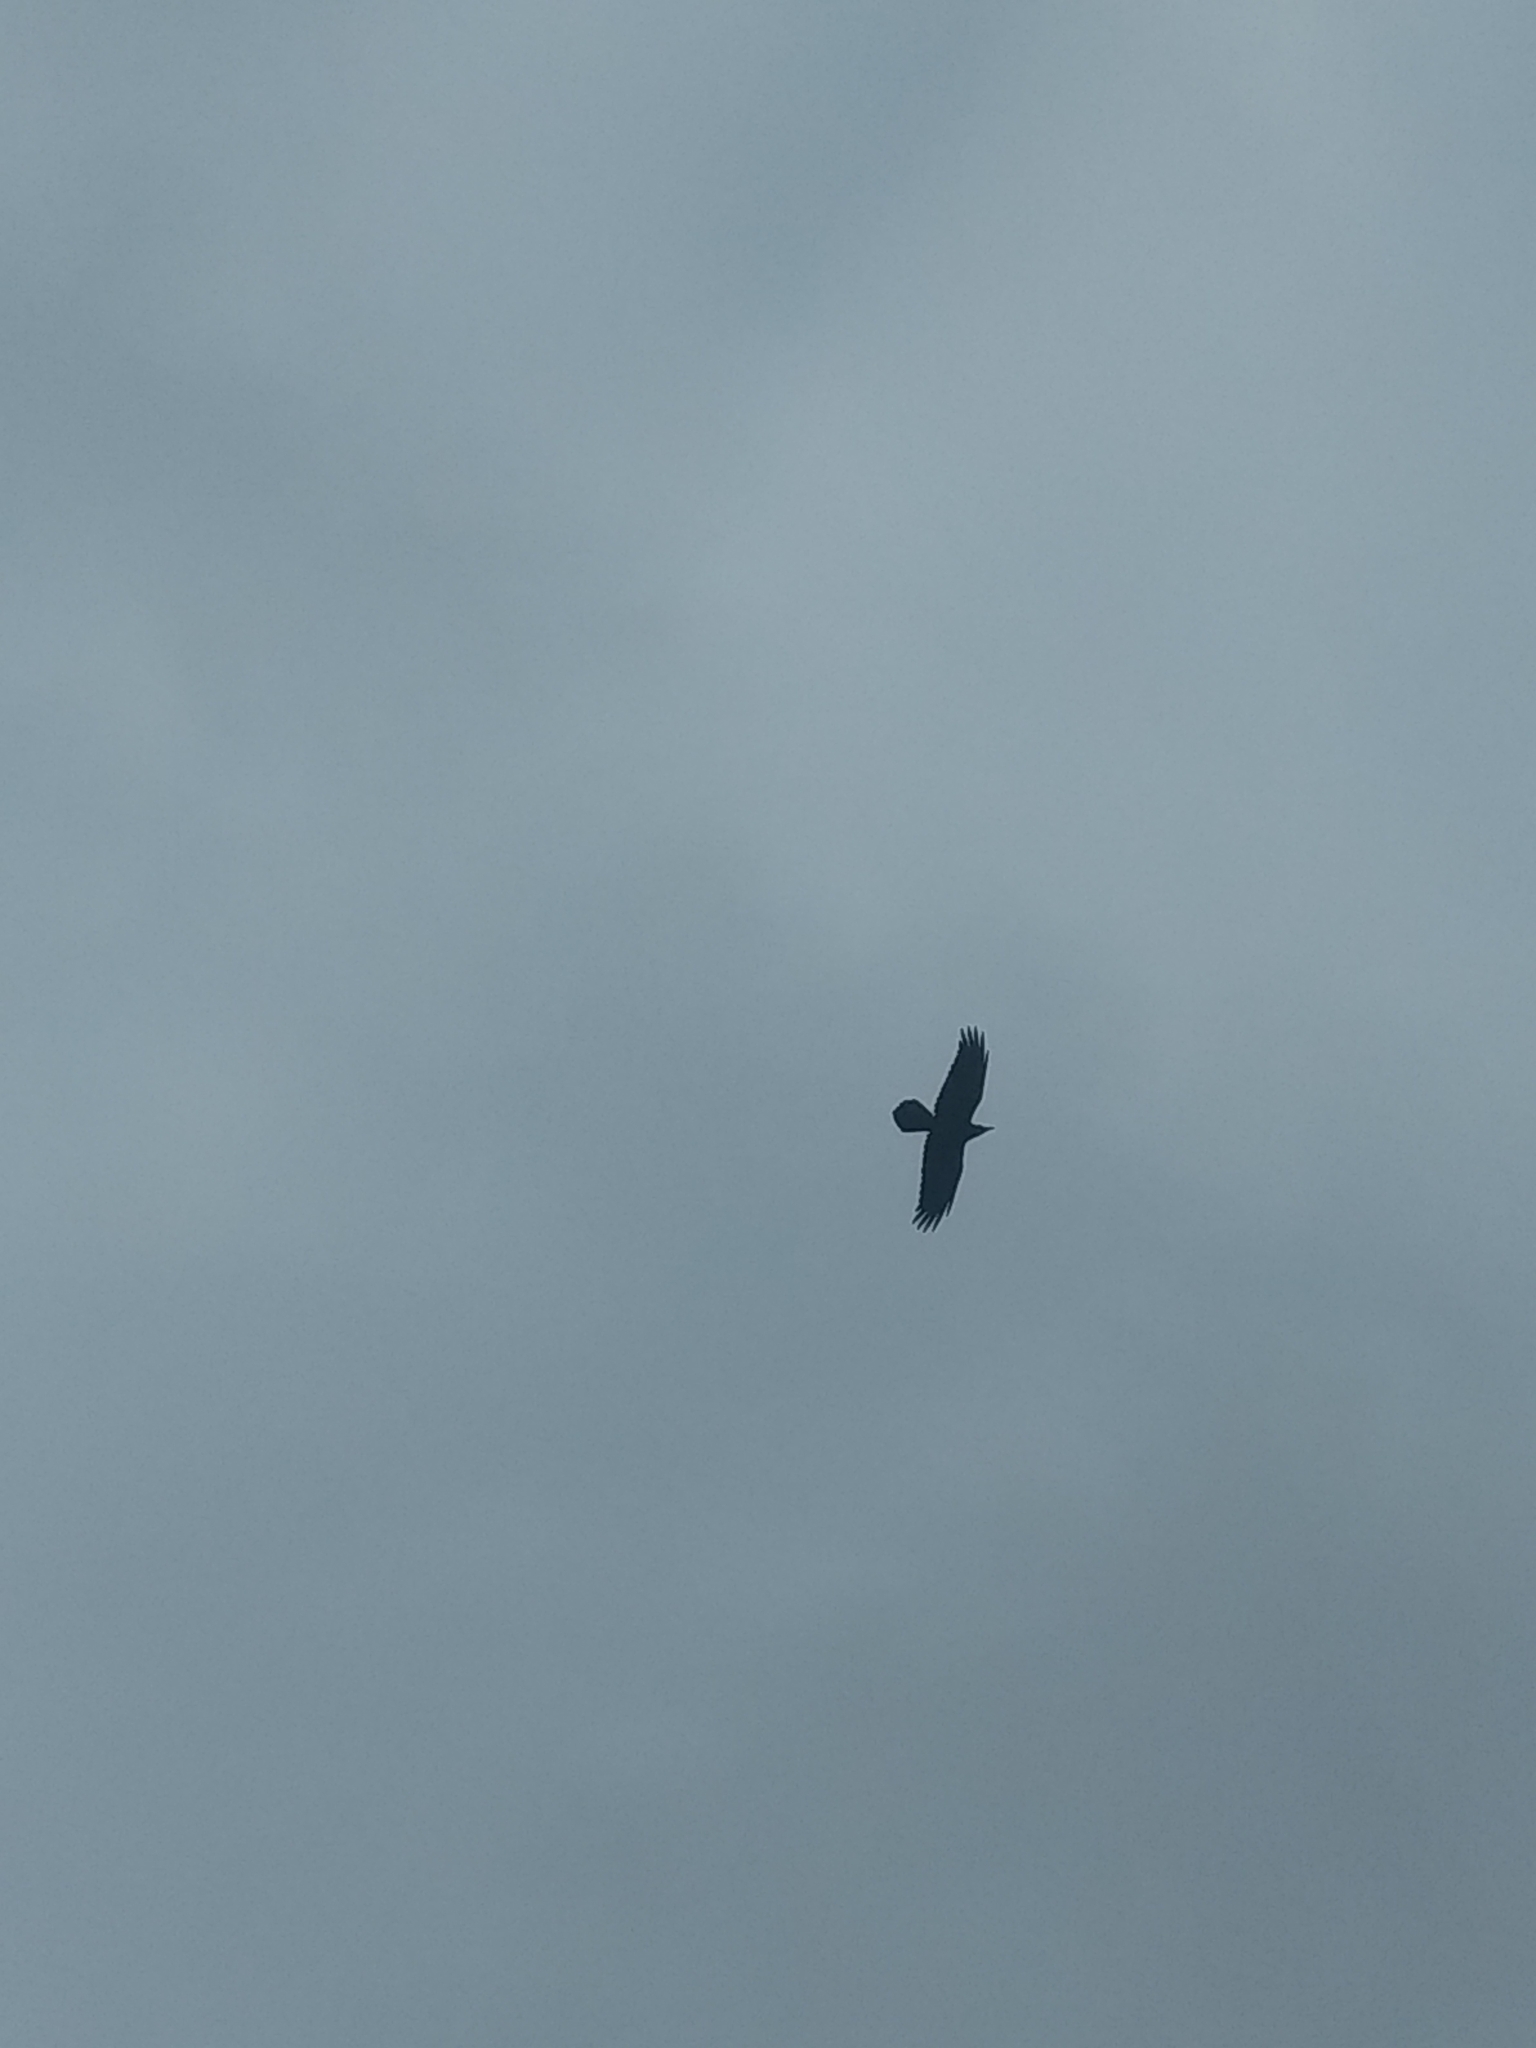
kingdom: Animalia
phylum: Chordata
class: Aves
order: Passeriformes
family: Corvidae
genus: Corvus
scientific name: Corvus corax
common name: Common raven
